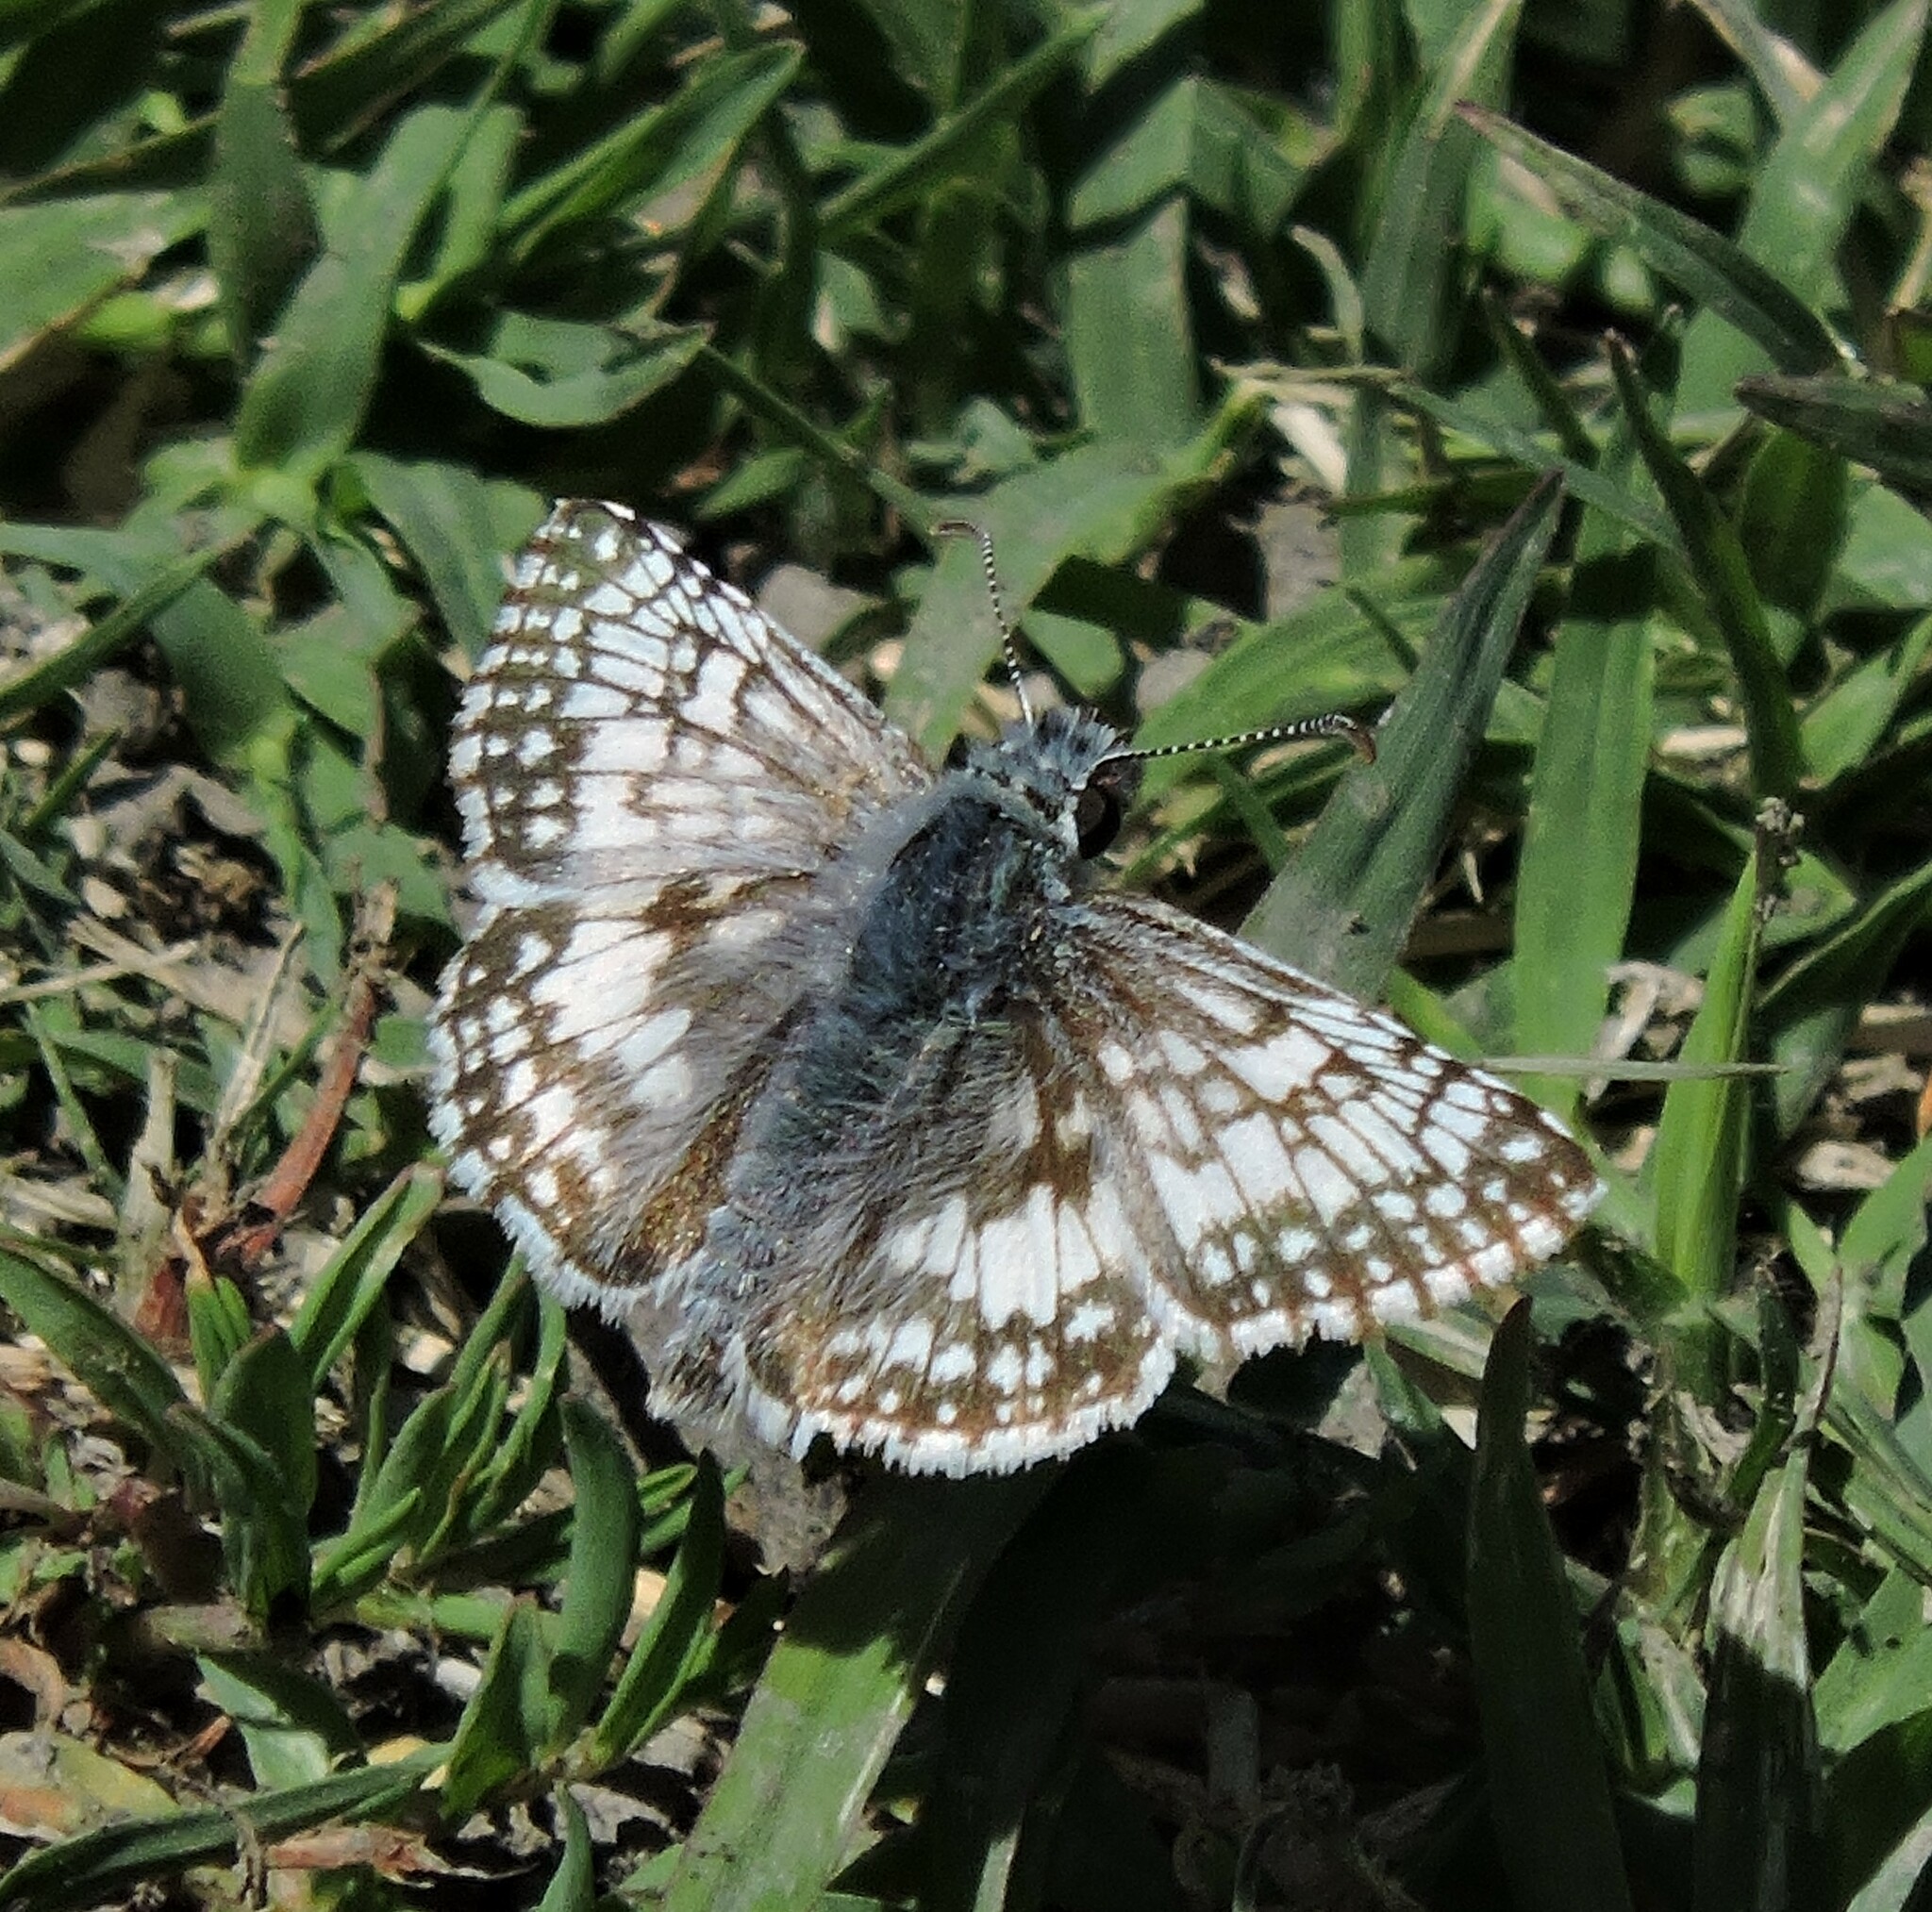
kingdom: Animalia
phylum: Arthropoda
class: Insecta
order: Lepidoptera
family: Hesperiidae
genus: Burnsius
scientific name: Burnsius communis
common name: Common checkered-skipper
